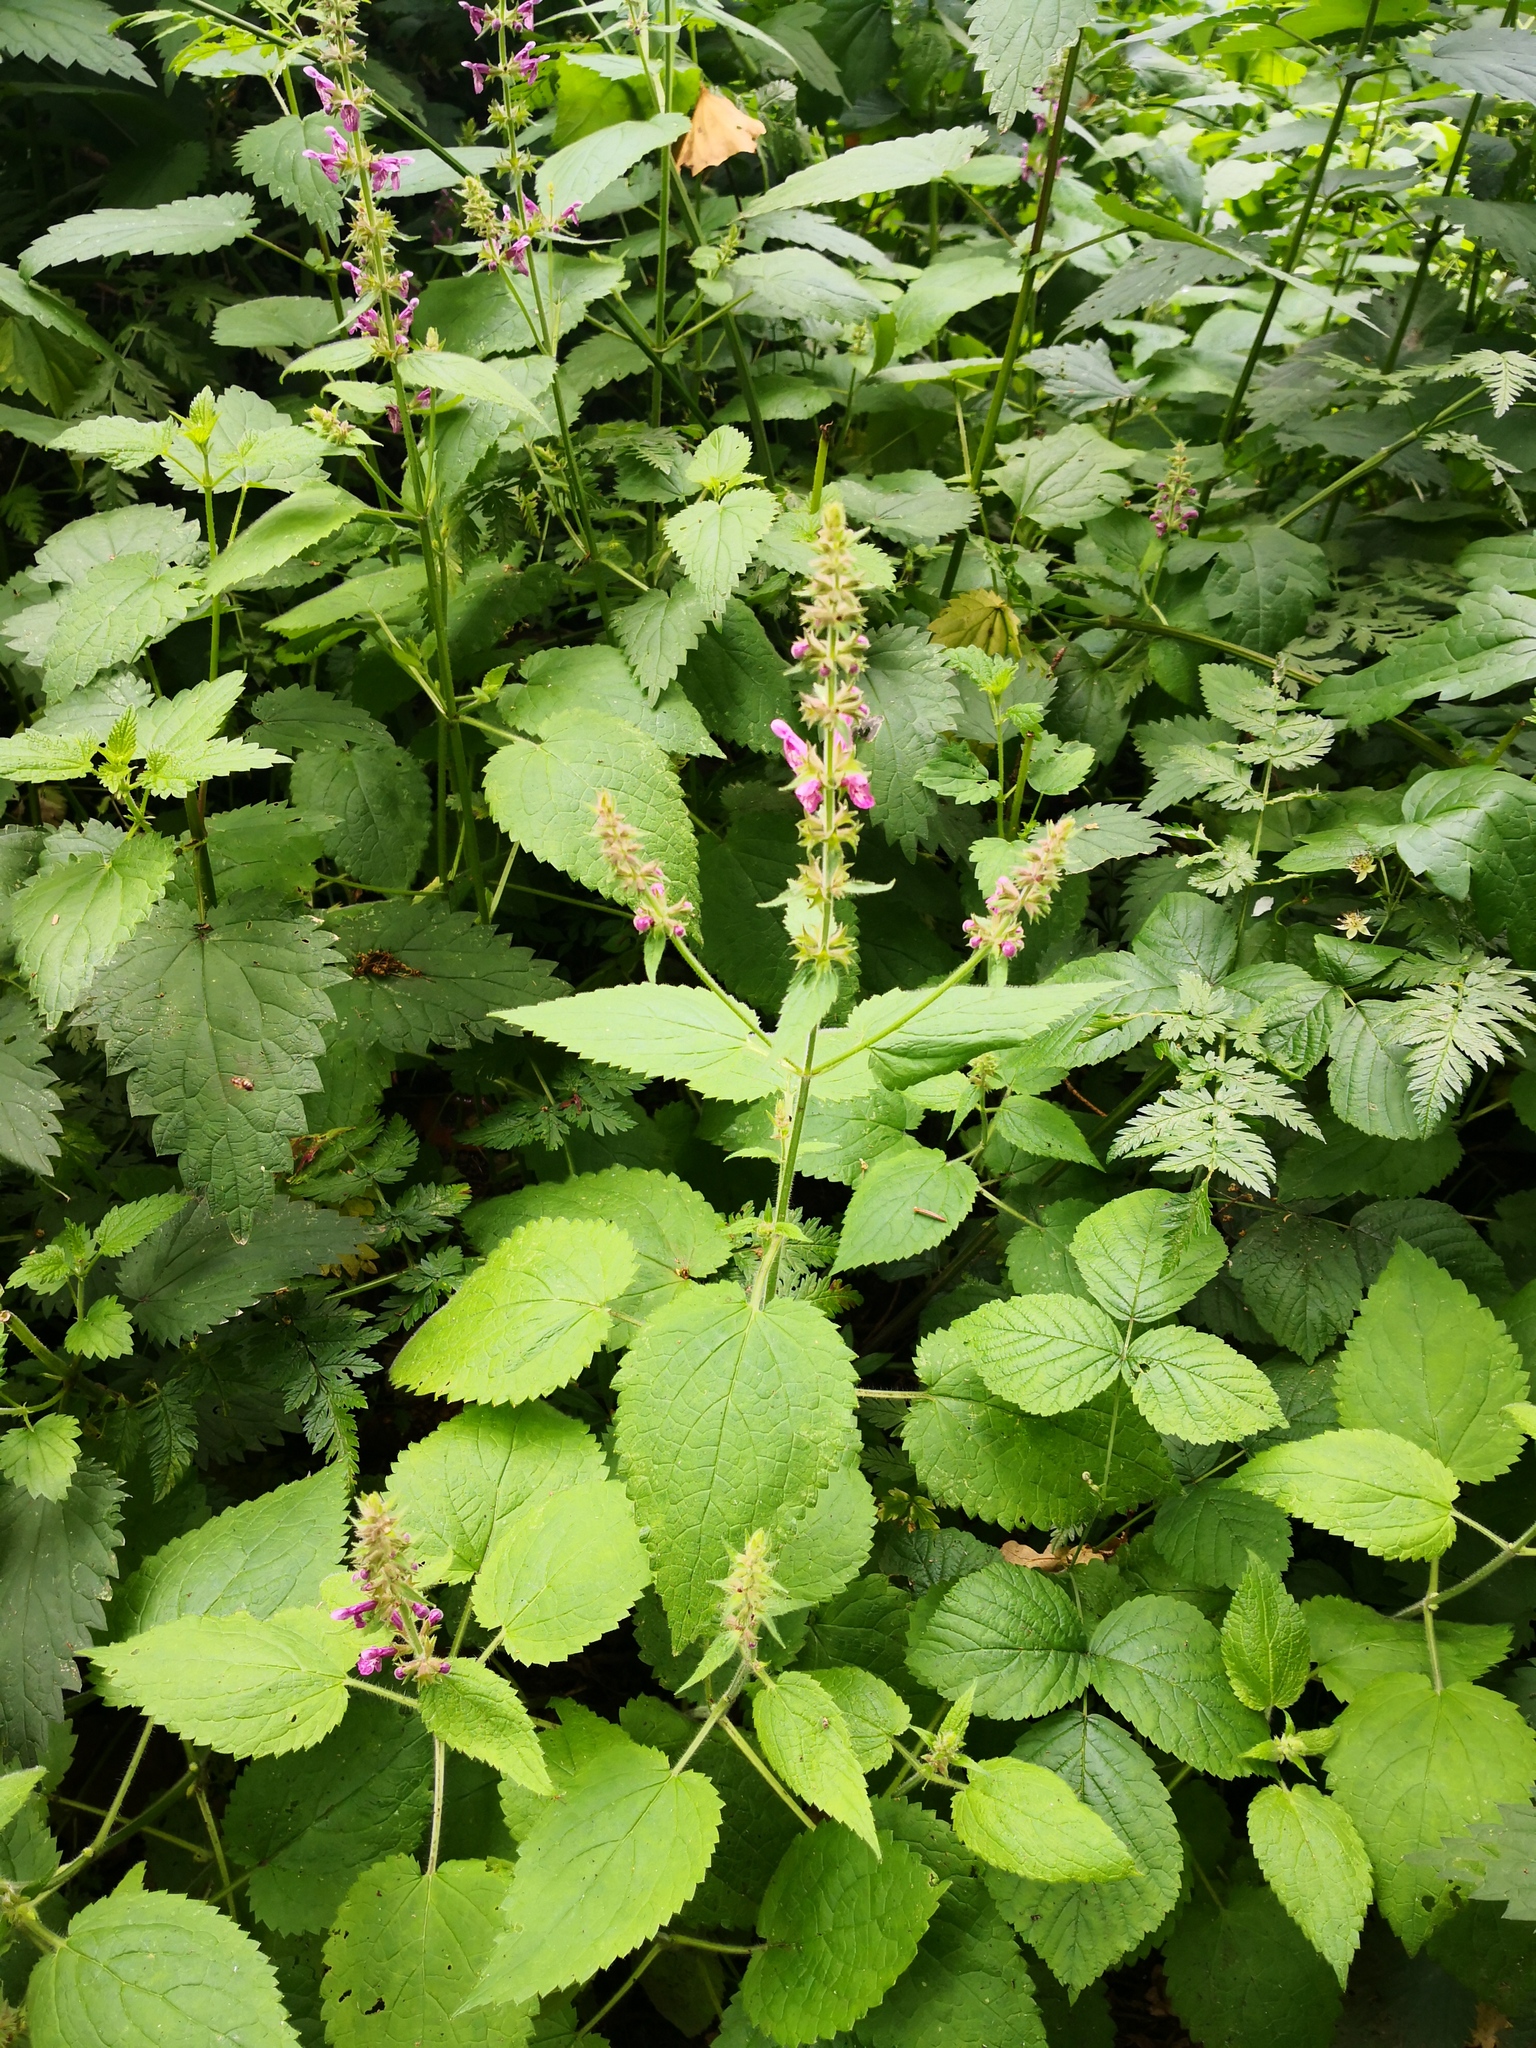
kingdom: Plantae
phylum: Tracheophyta
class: Magnoliopsida
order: Lamiales
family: Lamiaceae
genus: Stachys
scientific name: Stachys sylvatica
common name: Hedge woundwort
